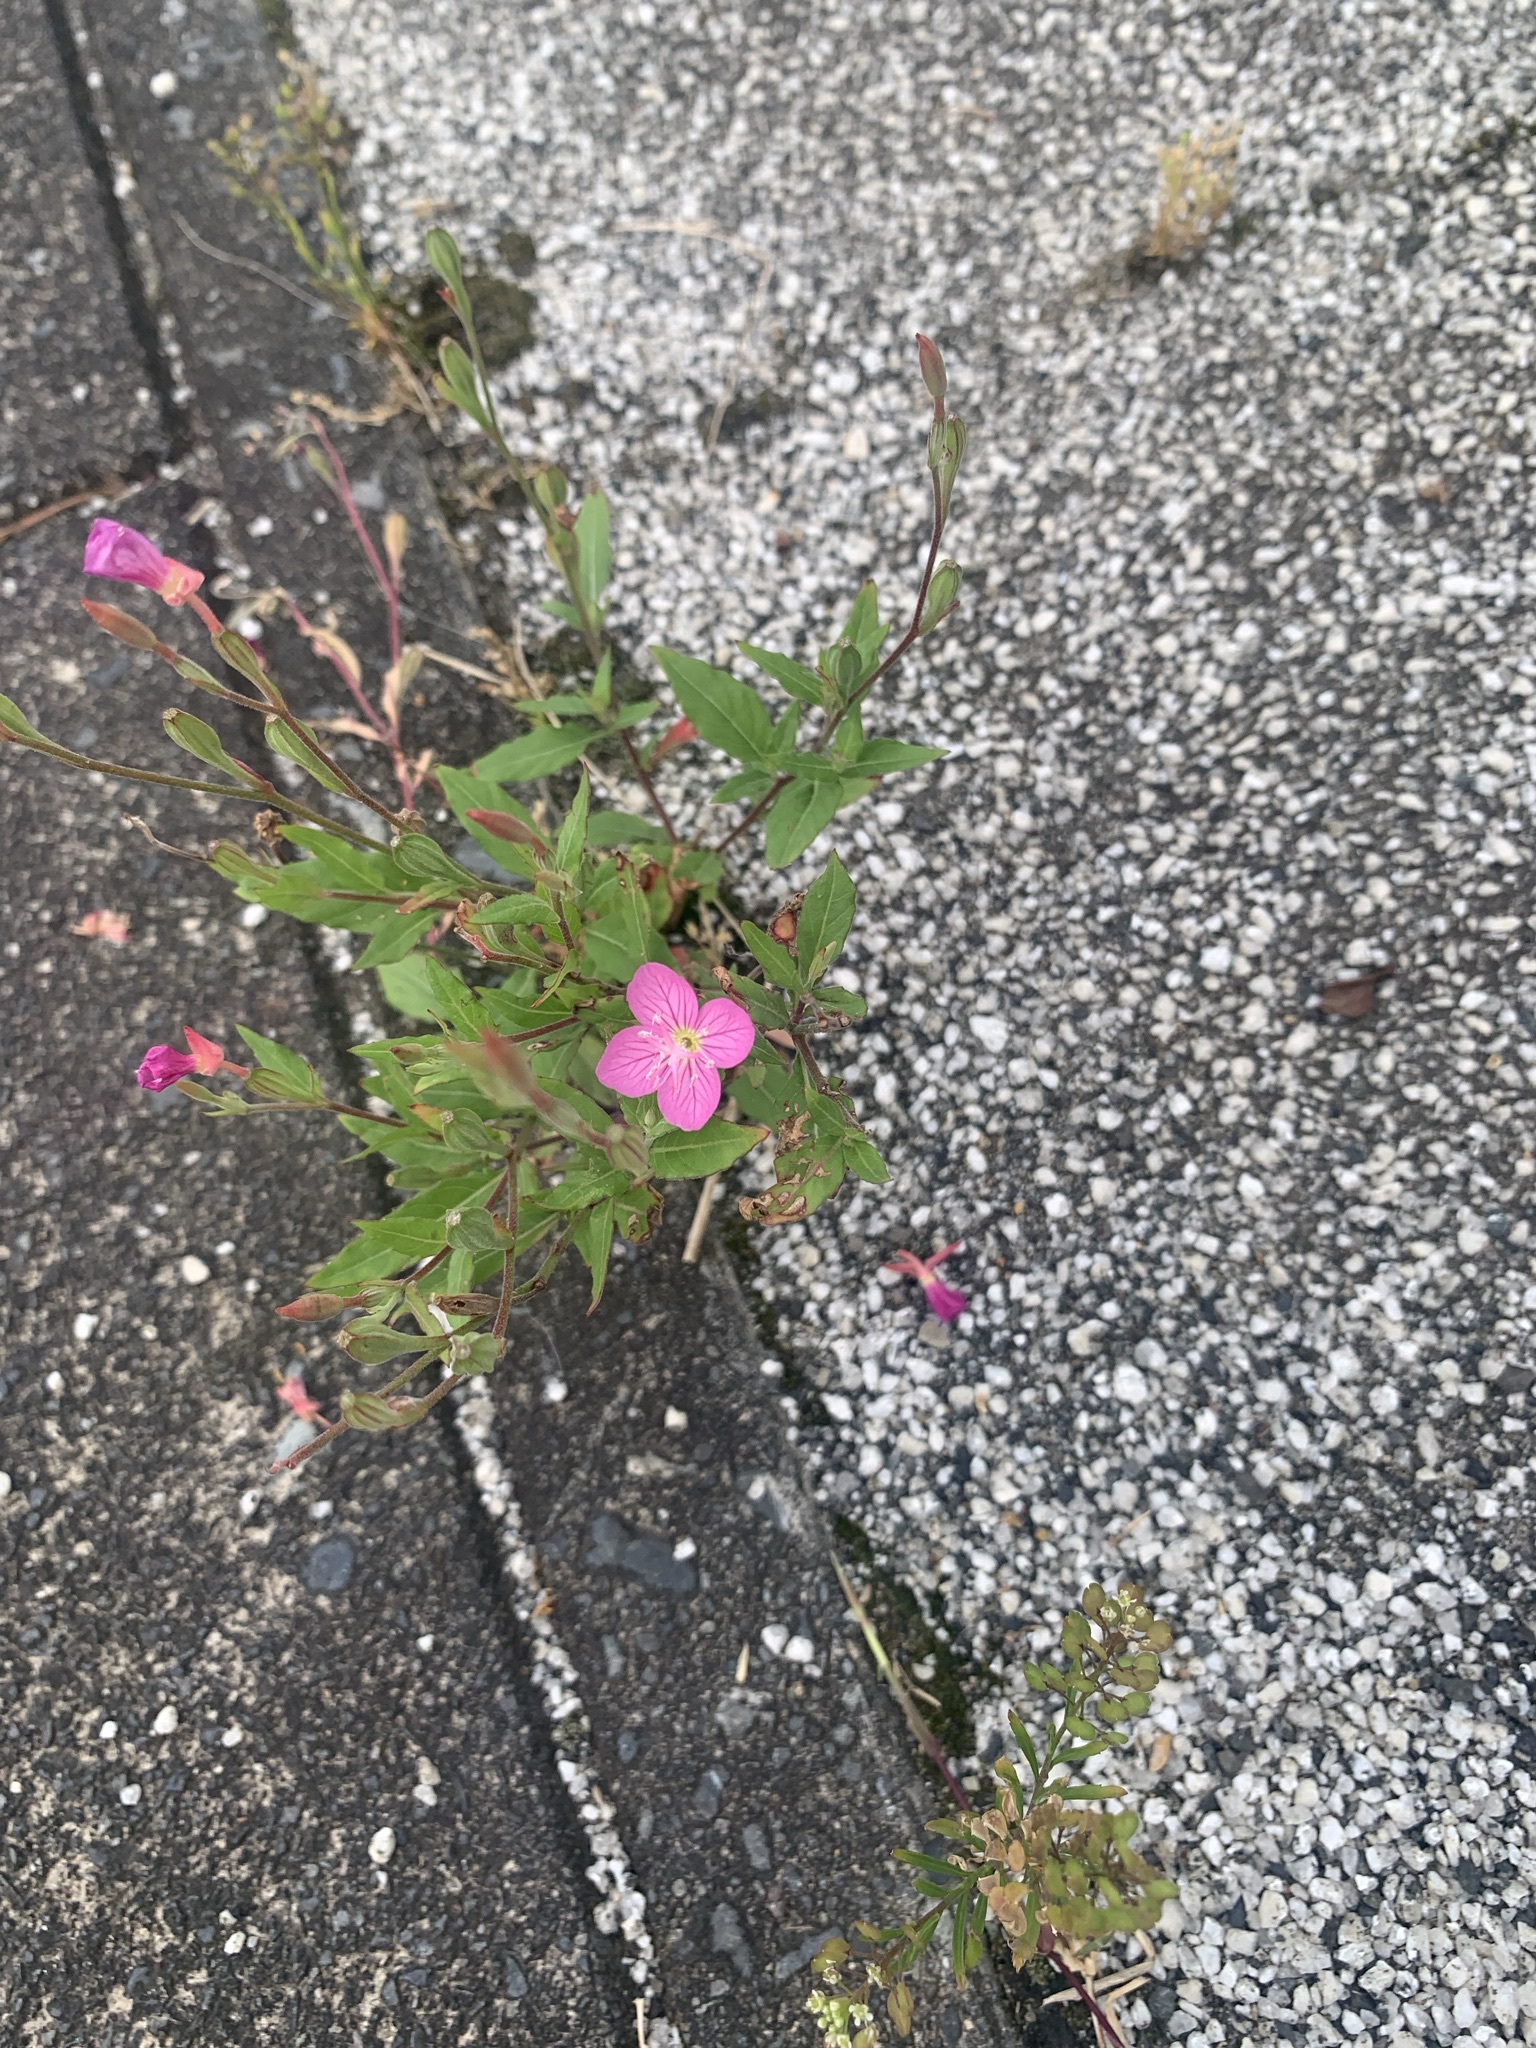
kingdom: Plantae
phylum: Tracheophyta
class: Magnoliopsida
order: Myrtales
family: Onagraceae
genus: Oenothera
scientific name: Oenothera rosea
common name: Rosy evening-primrose
